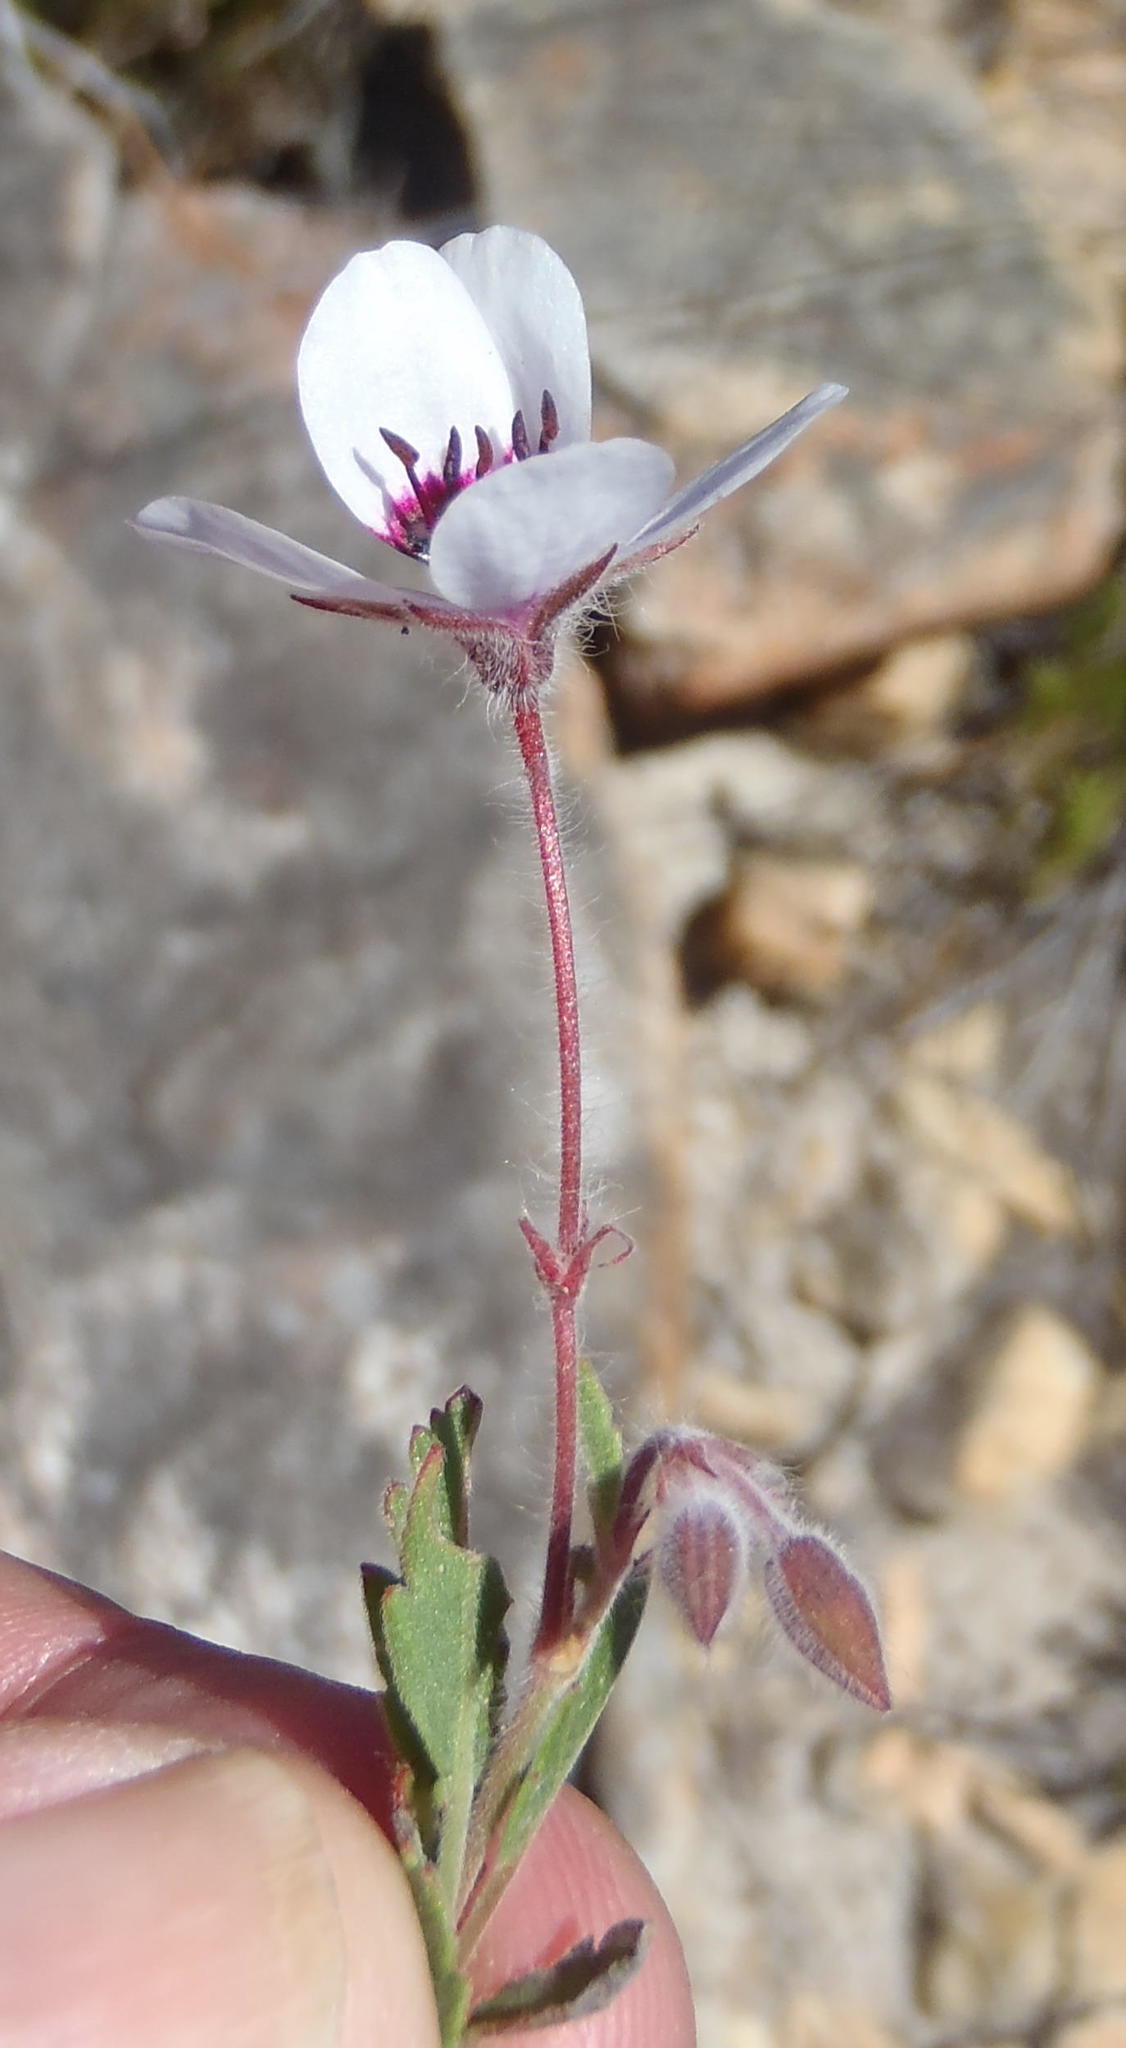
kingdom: Plantae
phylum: Tracheophyta
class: Magnoliopsida
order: Geraniales
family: Geraniaceae
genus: Pelargonium
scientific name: Pelargonium tricolor
